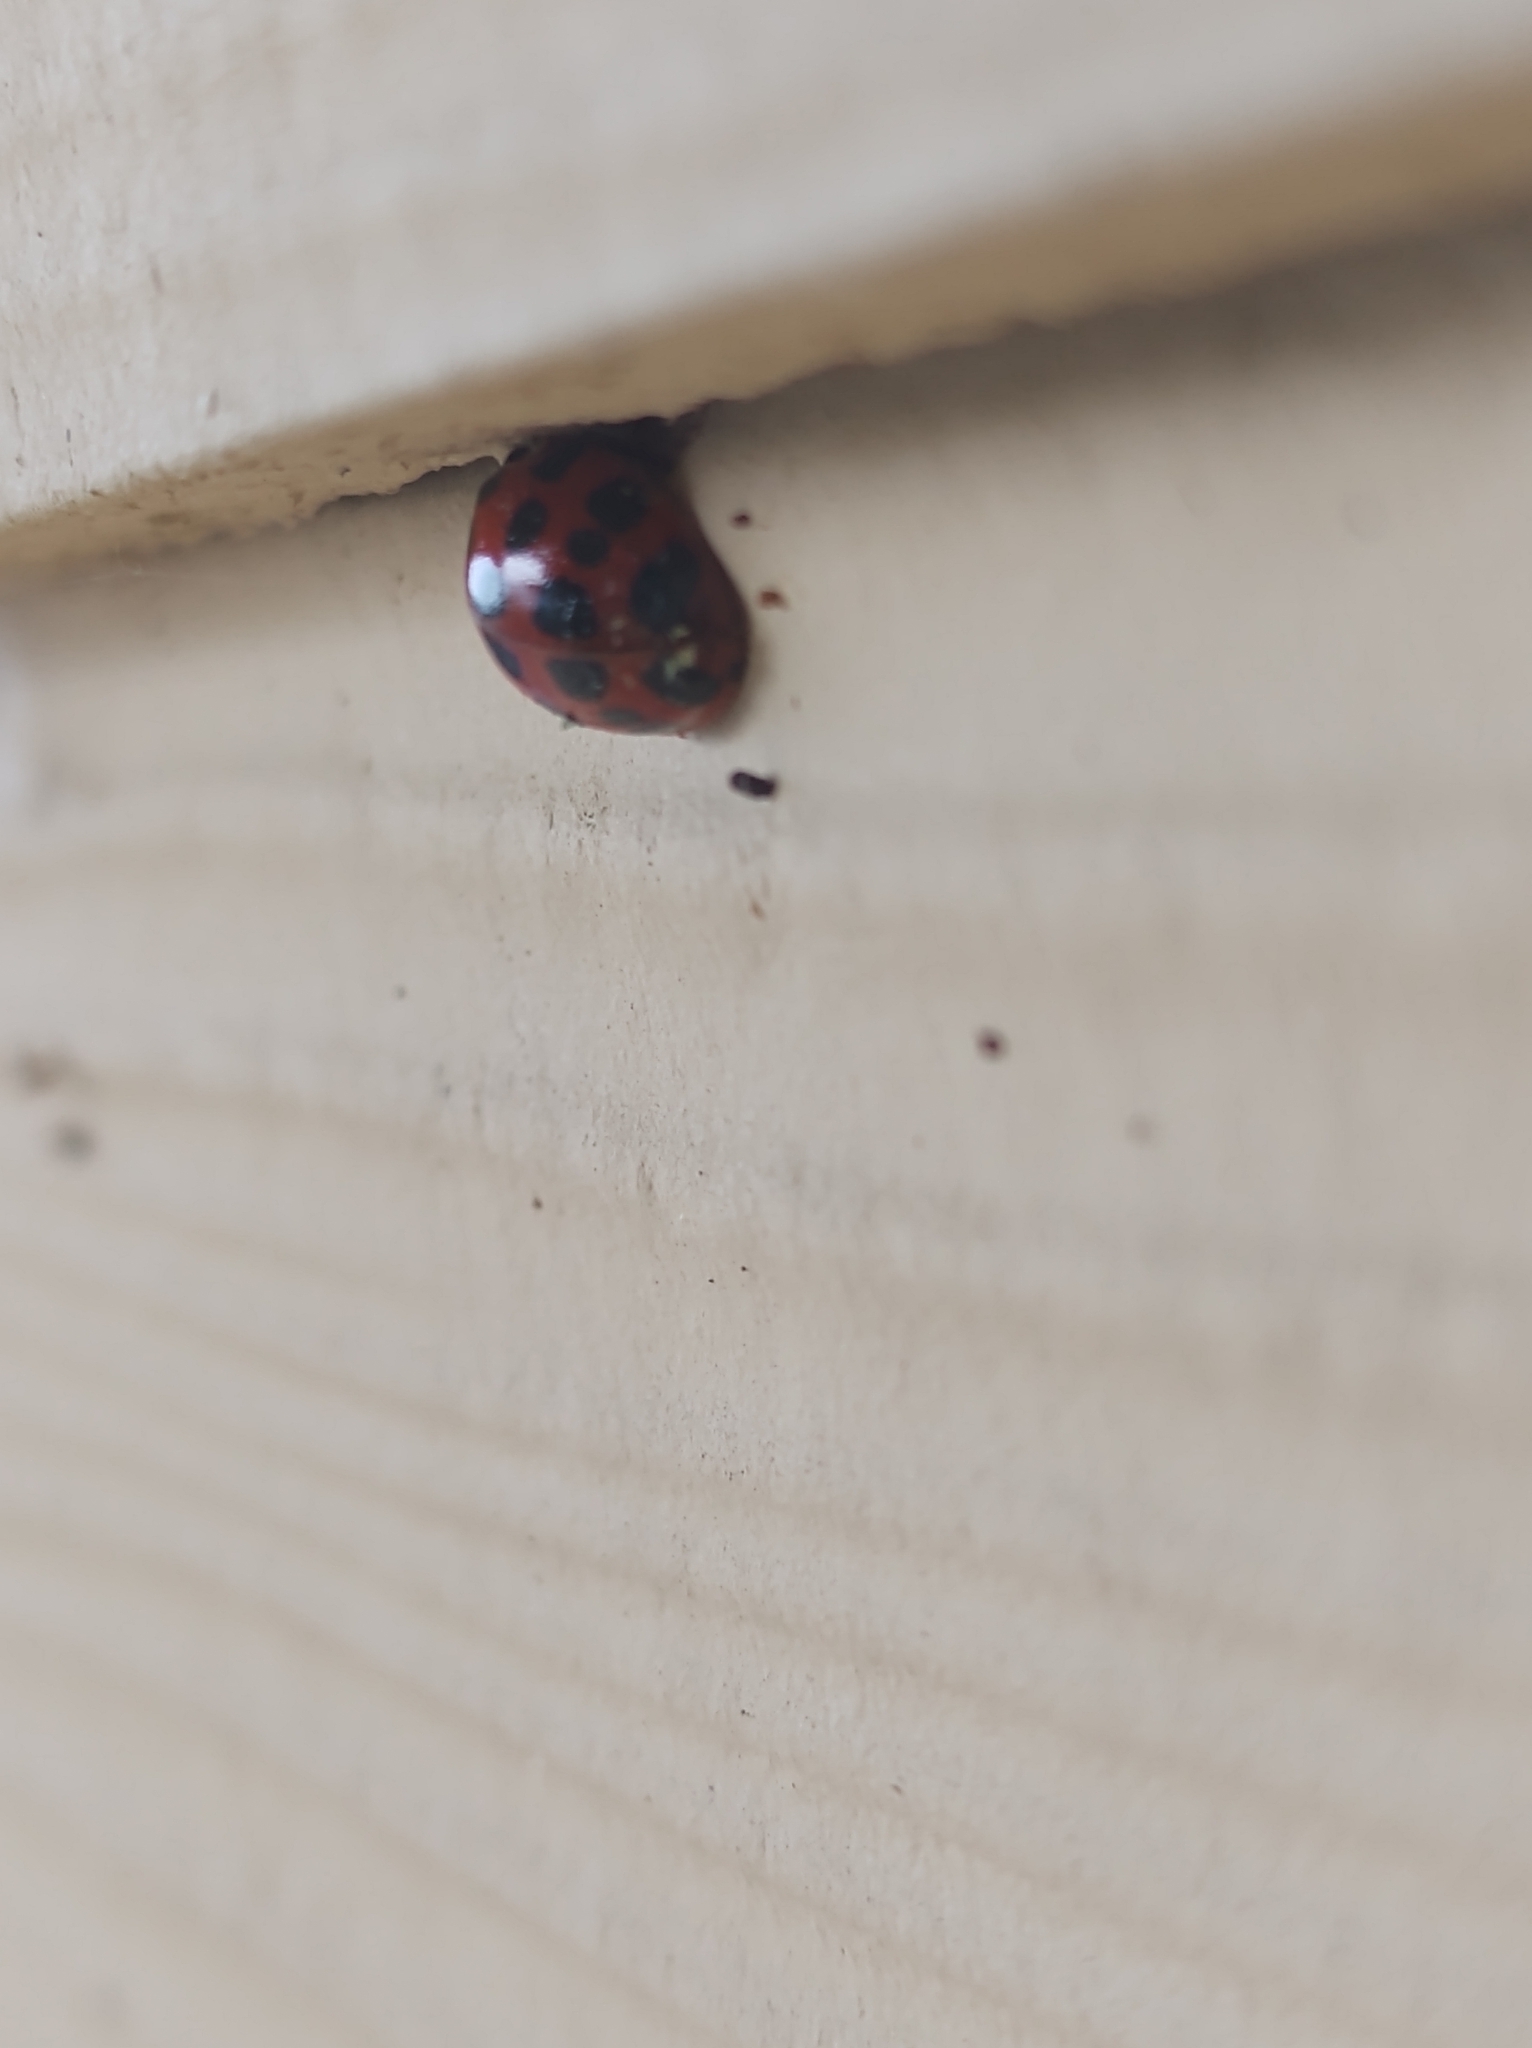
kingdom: Fungi
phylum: Ascomycota
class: Laboulbeniomycetes
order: Laboulbeniales
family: Laboulbeniaceae
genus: Hesperomyces
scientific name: Hesperomyces harmoniae
